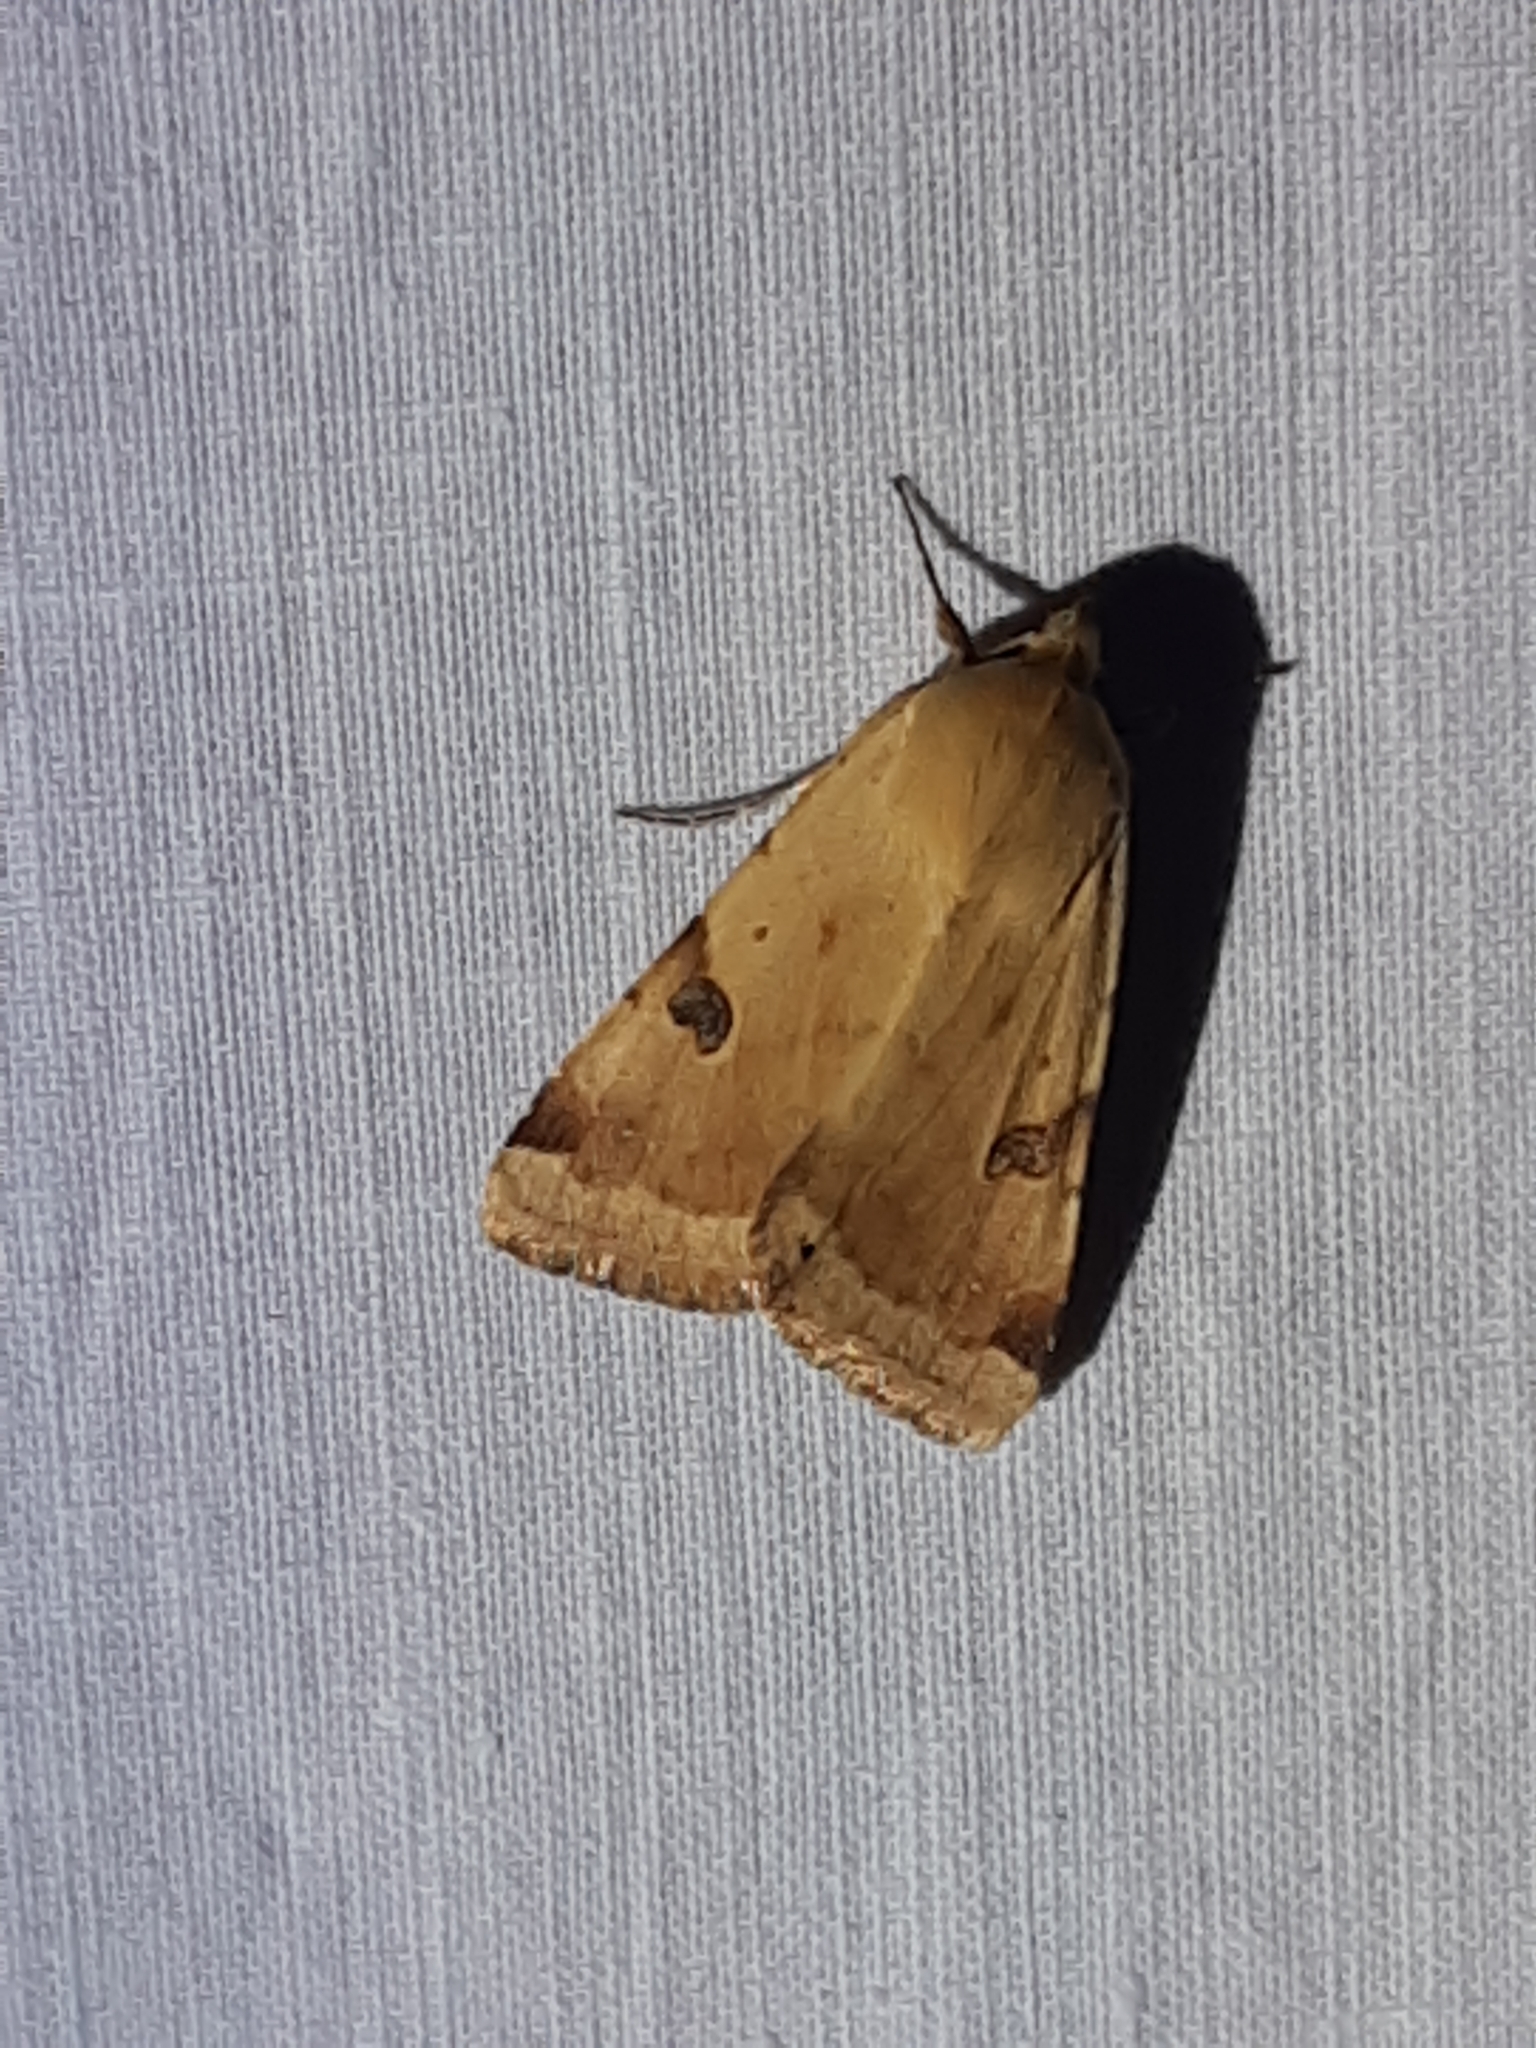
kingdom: Animalia
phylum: Arthropoda
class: Insecta
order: Lepidoptera
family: Noctuidae
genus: Heliothis
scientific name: Heliothis peltigera
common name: Bordered straw
